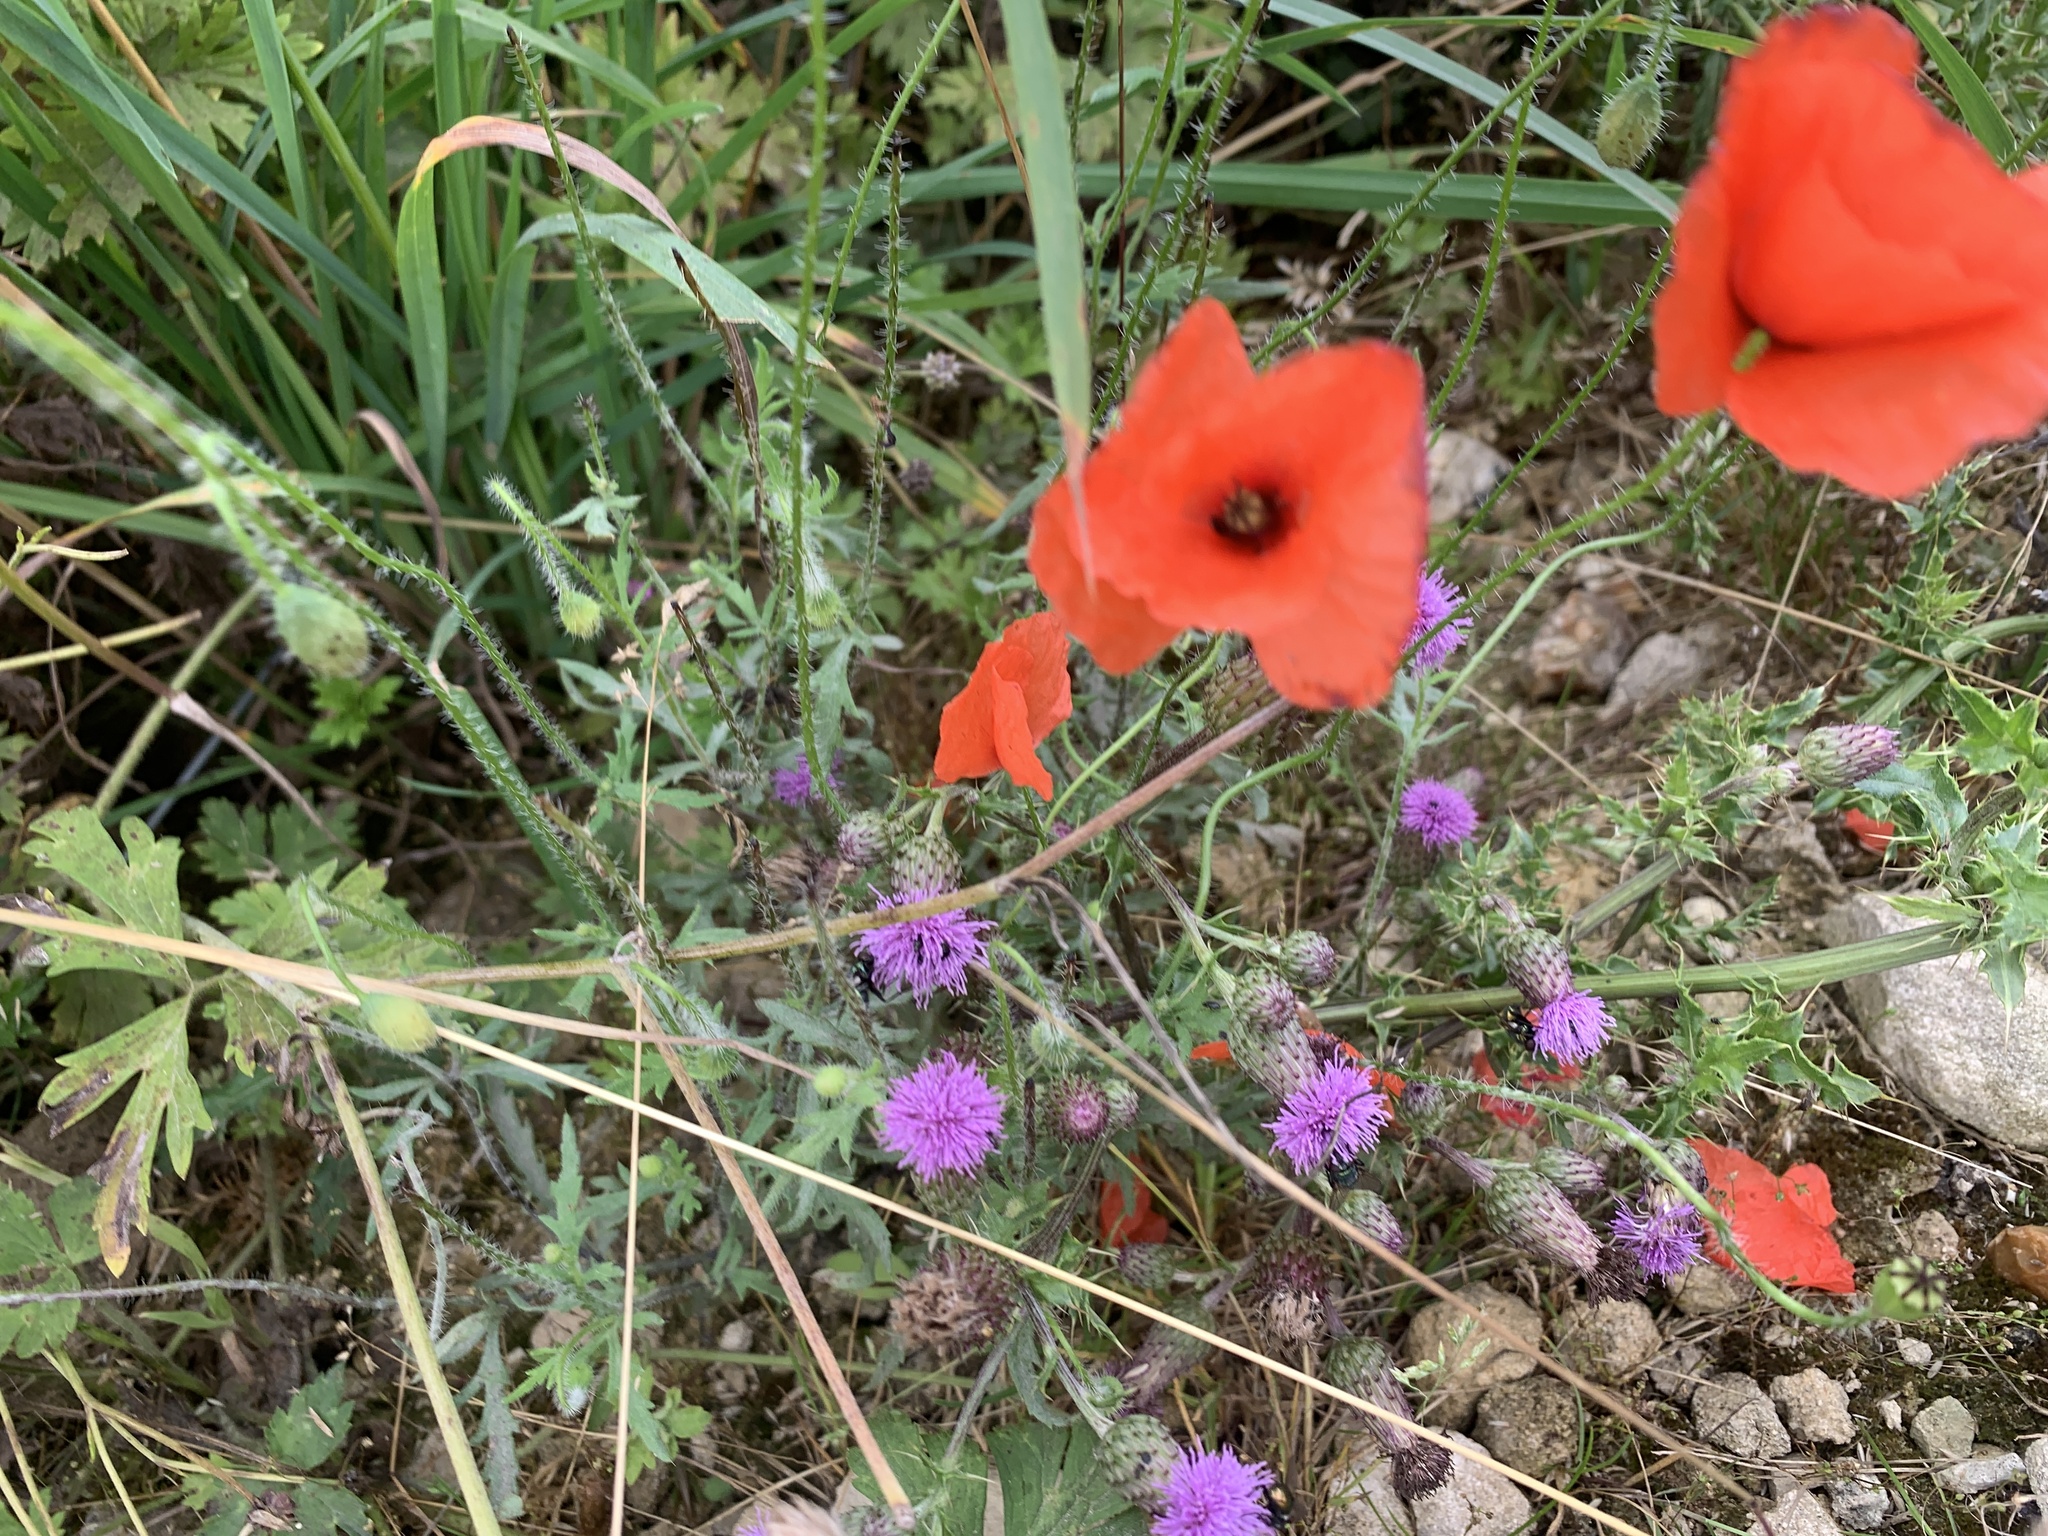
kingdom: Plantae
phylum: Tracheophyta
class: Magnoliopsida
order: Ranunculales
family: Papaveraceae
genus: Papaver
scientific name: Papaver rhoeas
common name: Corn poppy
